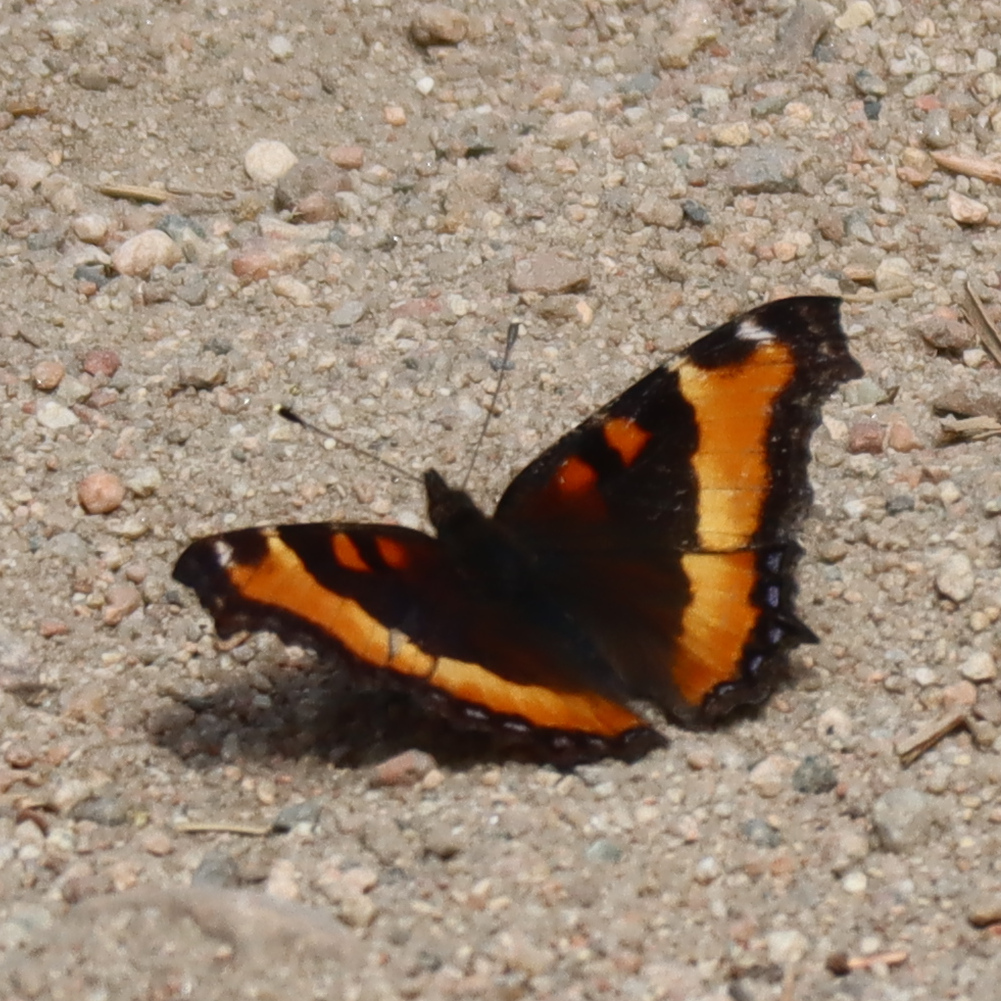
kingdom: Animalia
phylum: Arthropoda
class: Insecta
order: Lepidoptera
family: Nymphalidae
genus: Aglais
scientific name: Aglais milberti
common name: Milbert's tortoiseshell
